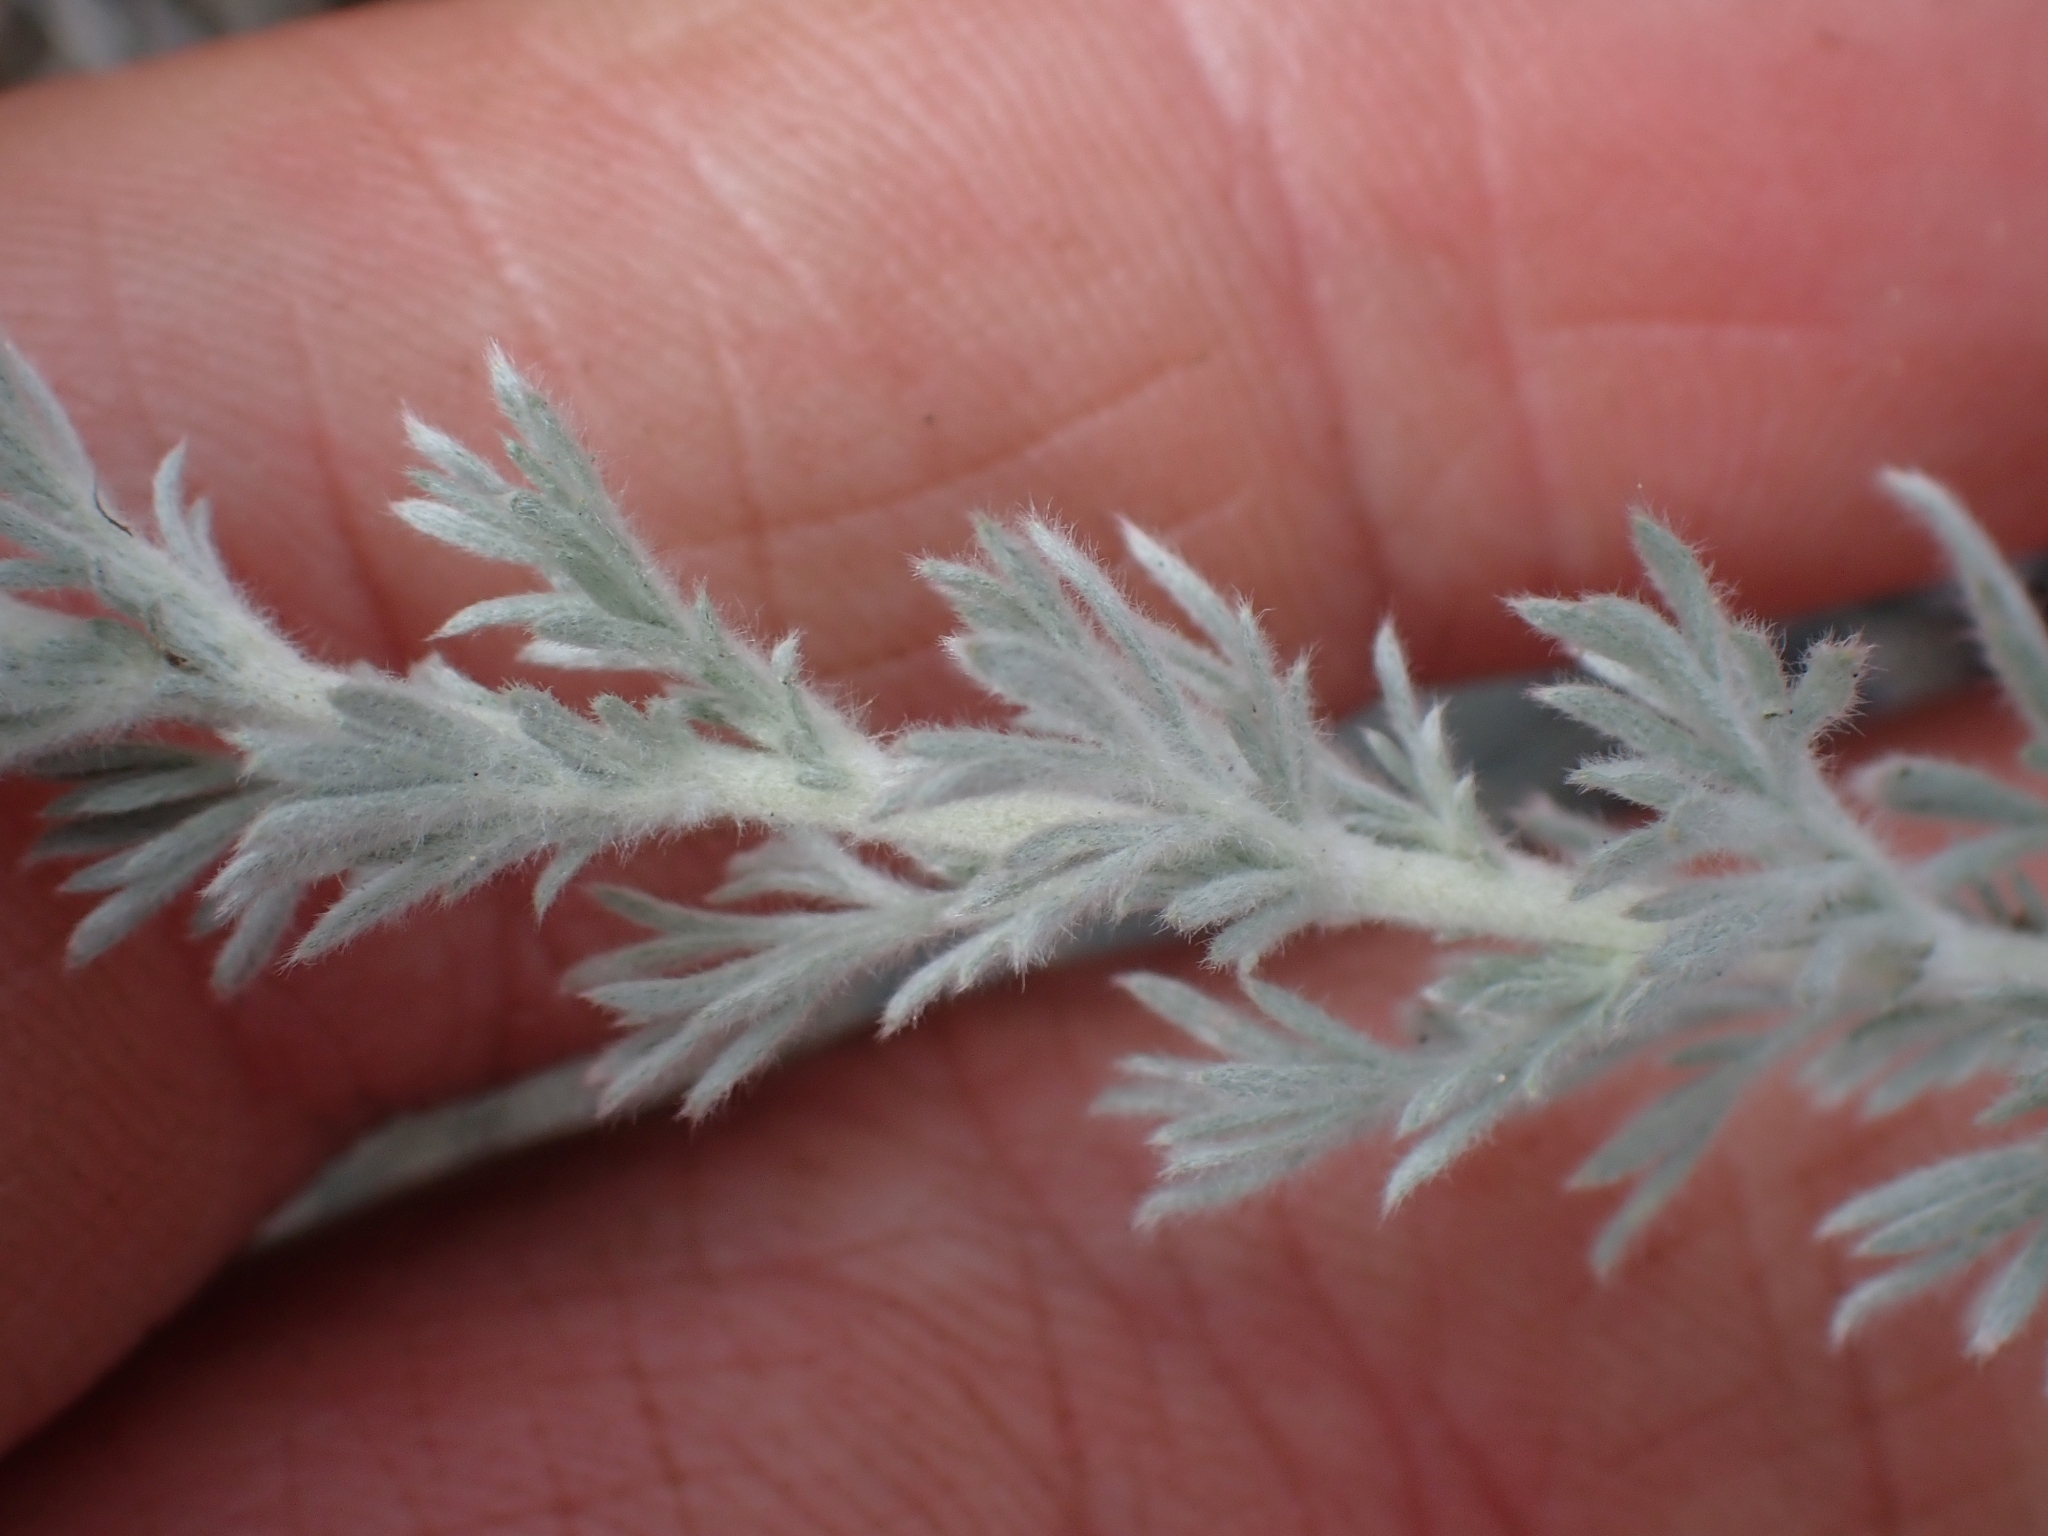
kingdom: Plantae
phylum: Tracheophyta
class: Magnoliopsida
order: Asterales
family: Asteraceae
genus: Artemisia
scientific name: Artemisia frigida
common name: Prairie sagewort
